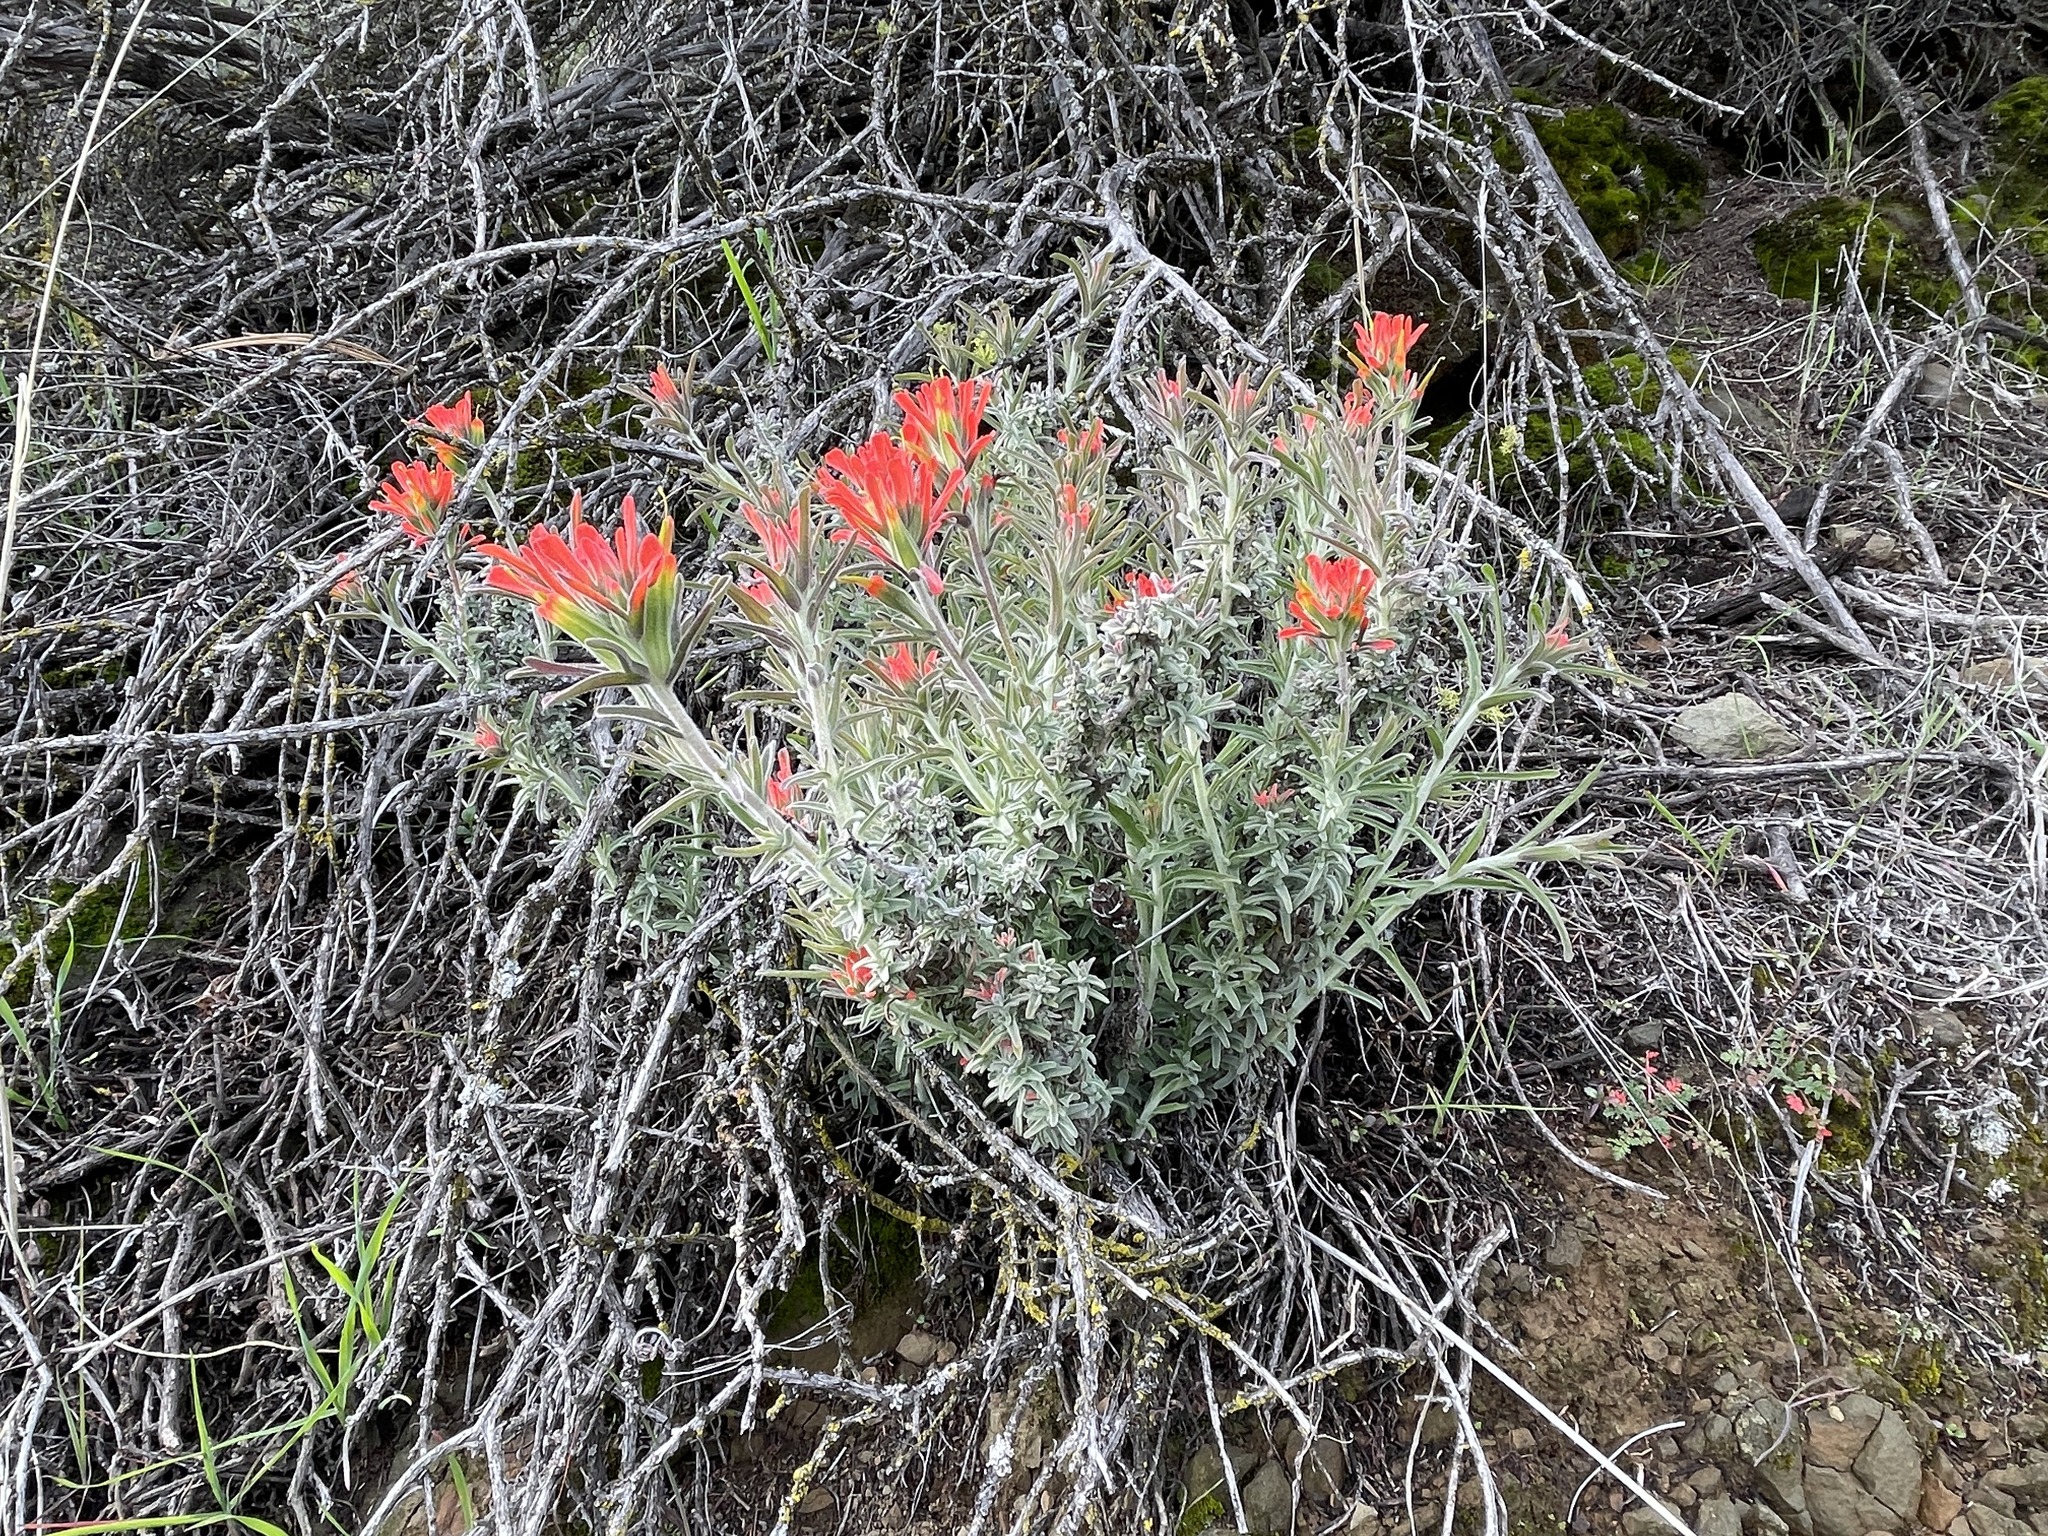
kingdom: Plantae
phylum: Tracheophyta
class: Magnoliopsida
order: Lamiales
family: Orobanchaceae
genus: Castilleja
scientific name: Castilleja foliolosa
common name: Woolly indian paintbrush
